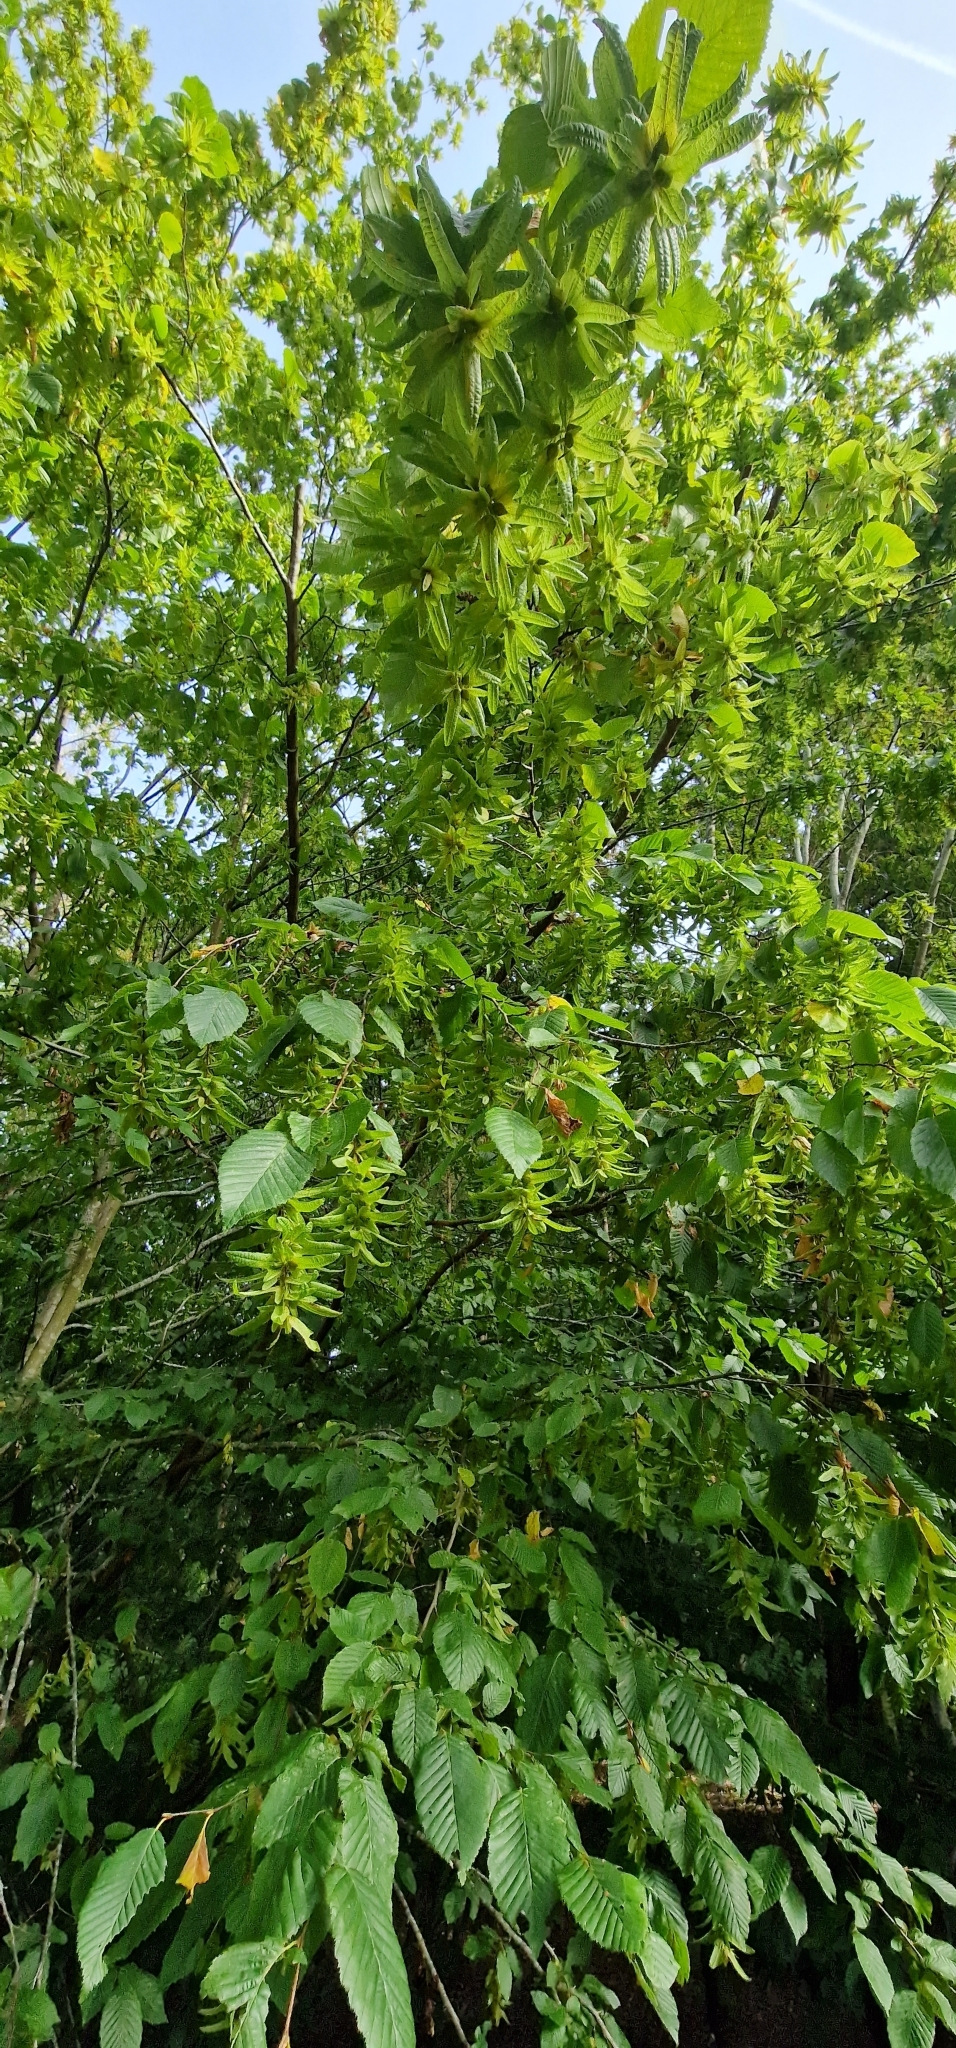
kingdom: Plantae
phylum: Tracheophyta
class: Magnoliopsida
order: Fagales
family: Betulaceae
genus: Carpinus
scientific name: Carpinus betulus
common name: Hornbeam
